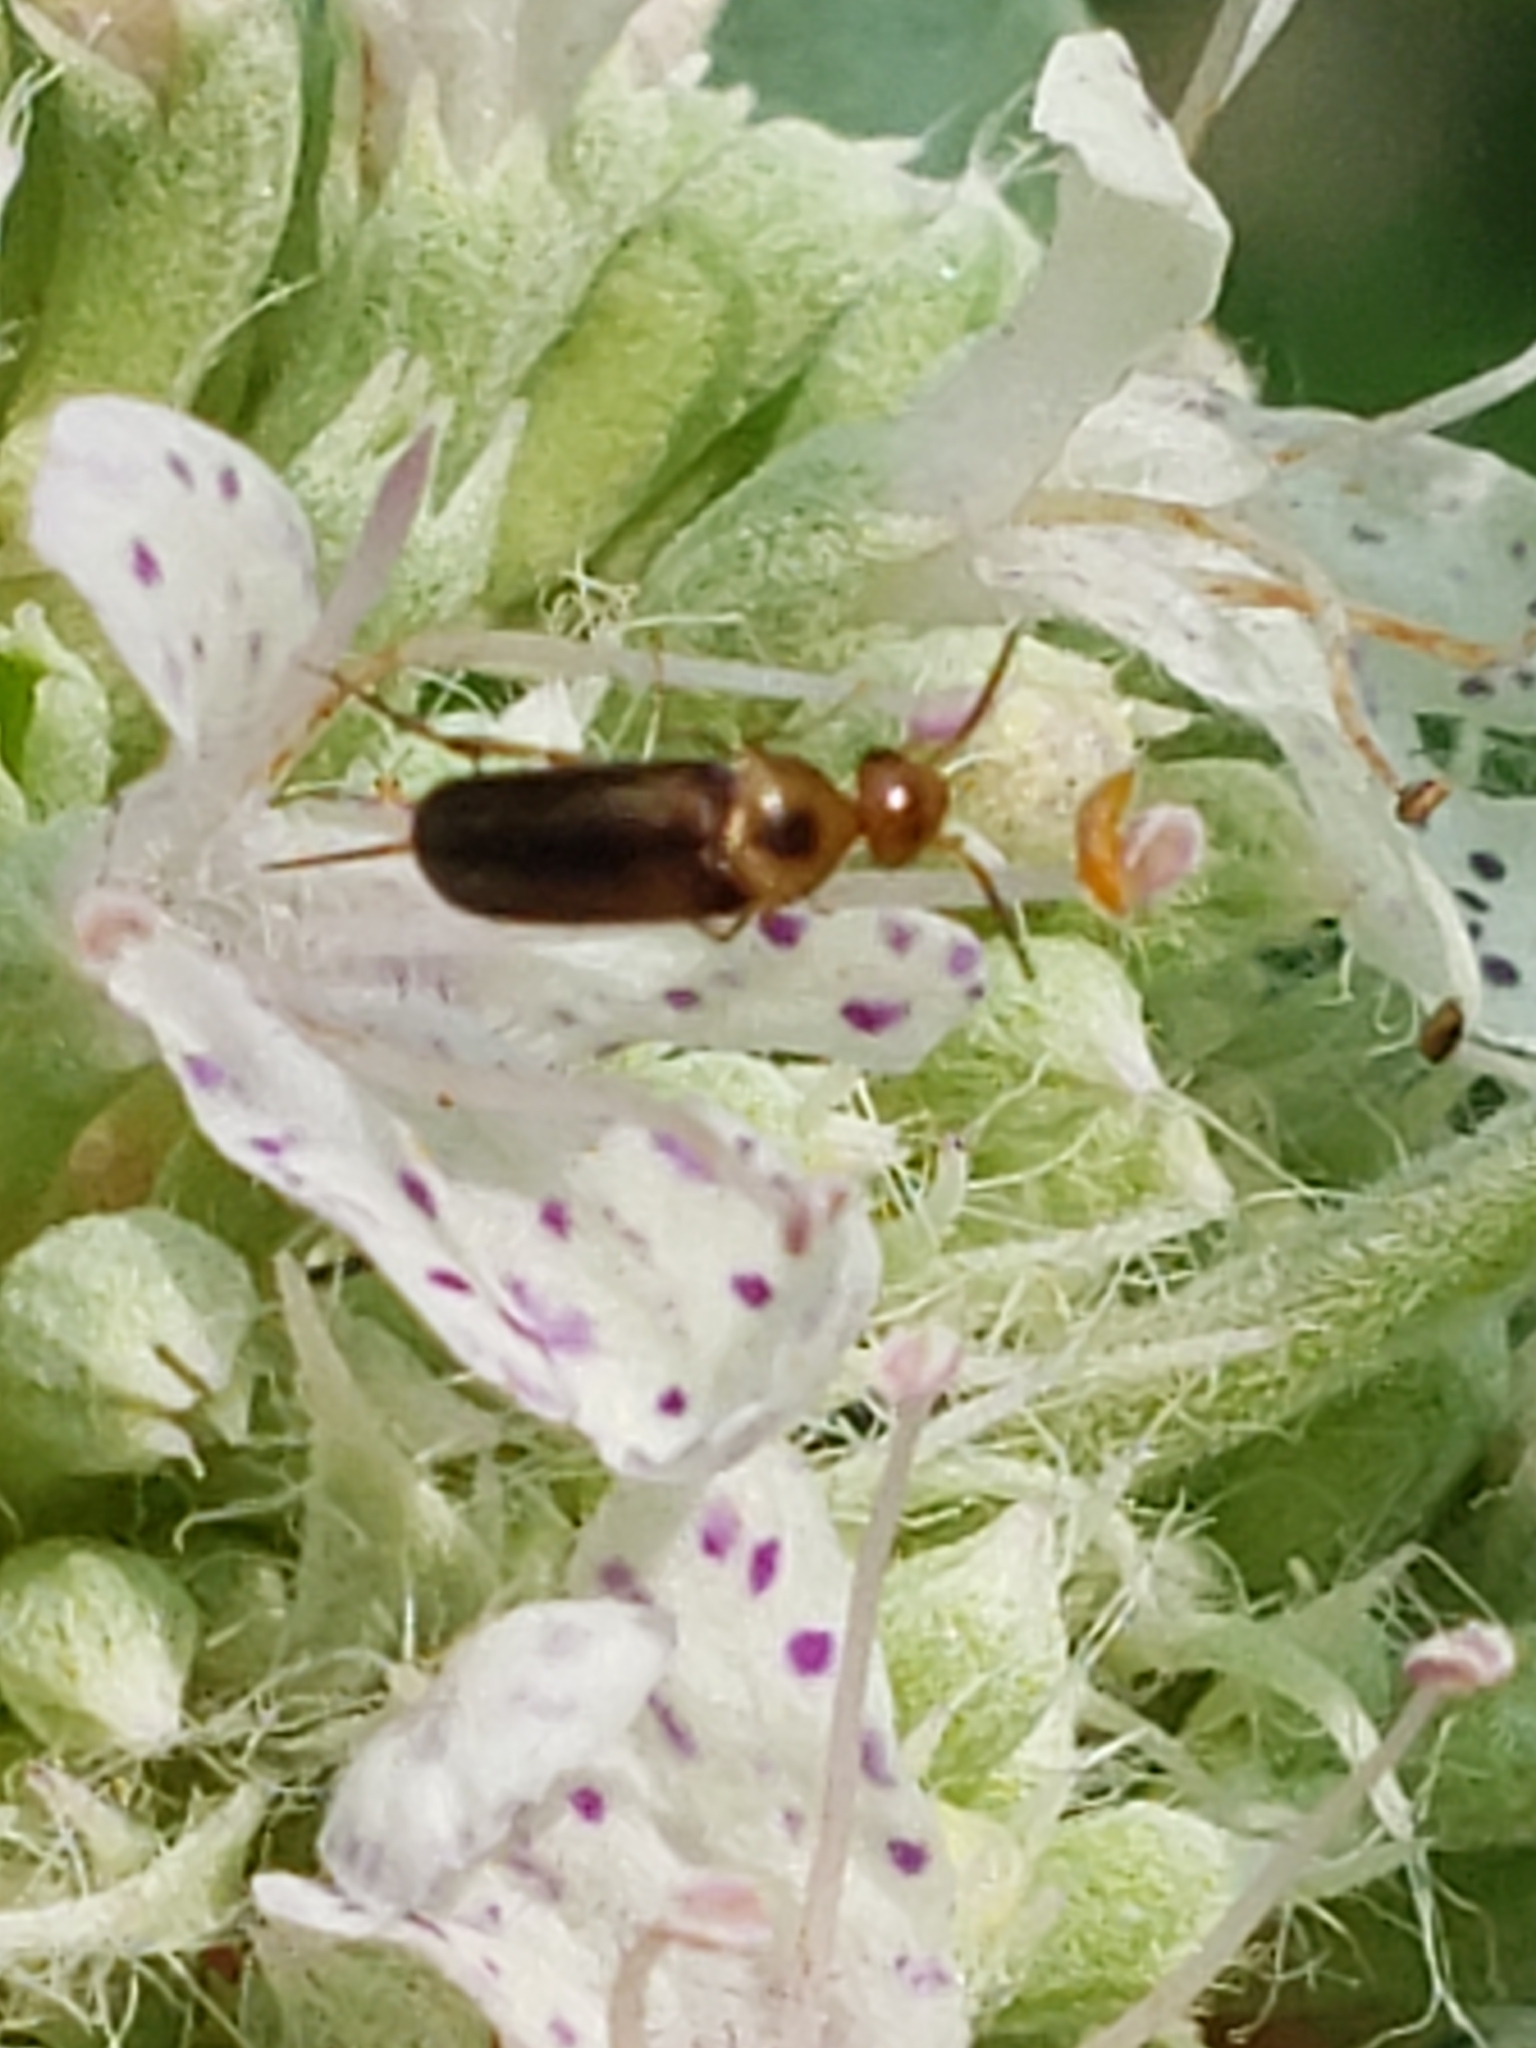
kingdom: Animalia
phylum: Arthropoda
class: Insecta
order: Coleoptera
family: Mordellidae
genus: Mordellistena
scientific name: Mordellistena limbalis
